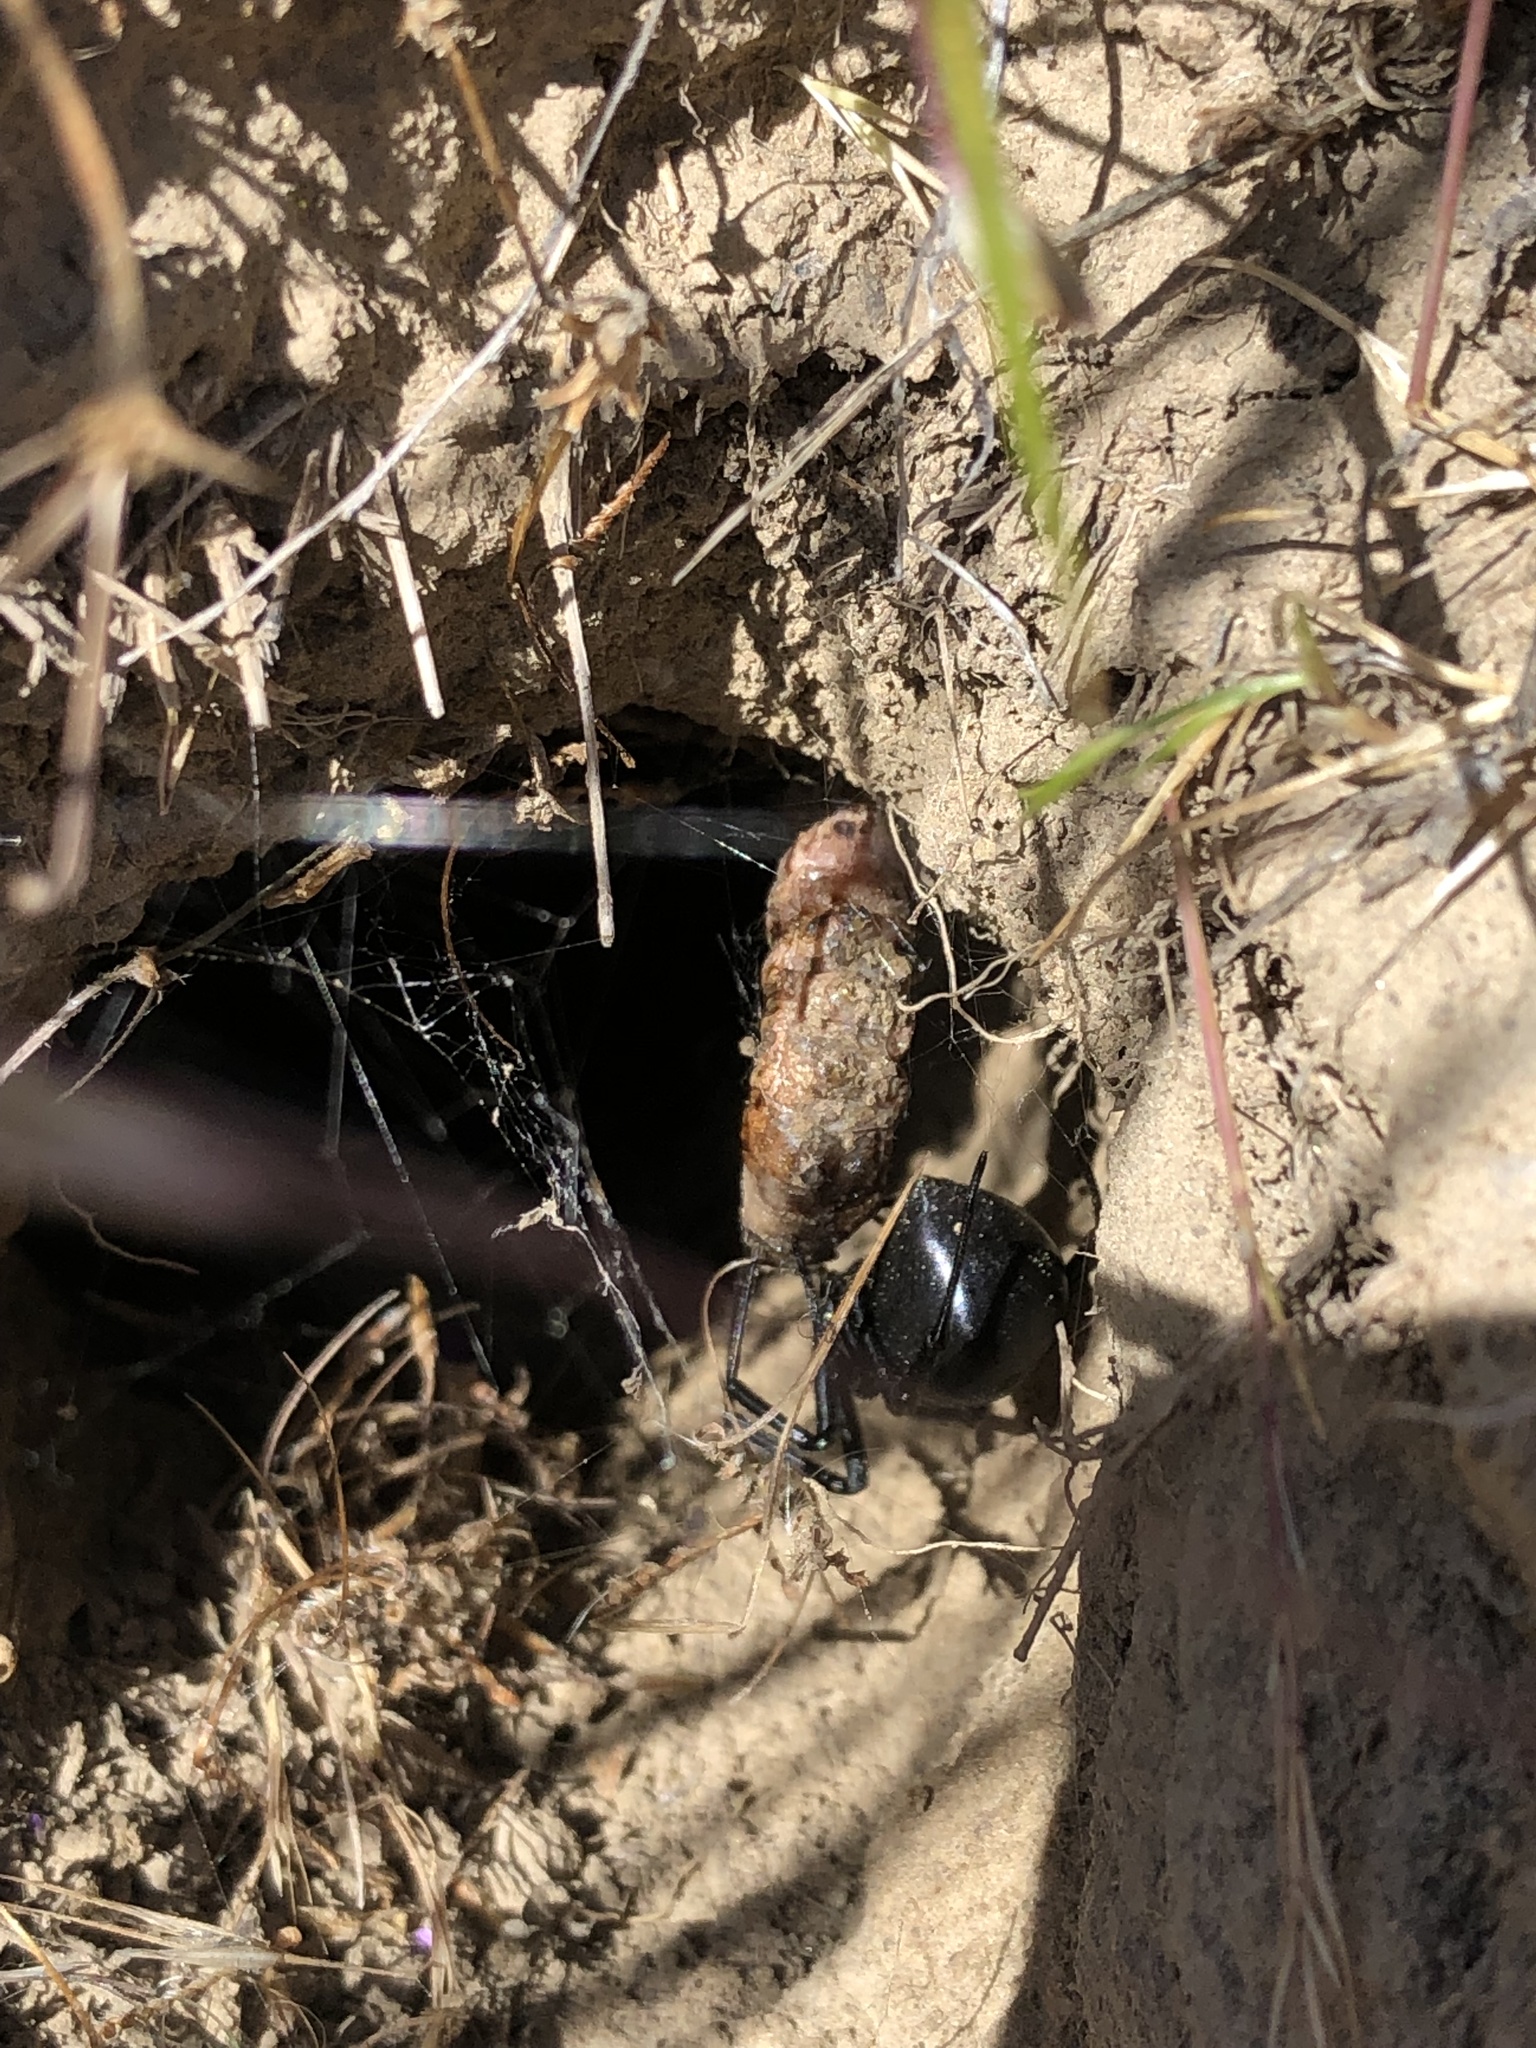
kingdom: Animalia
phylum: Arthropoda
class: Arachnida
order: Araneae
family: Theridiidae
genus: Latrodectus
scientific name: Latrodectus hesperus
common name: Western black widow
